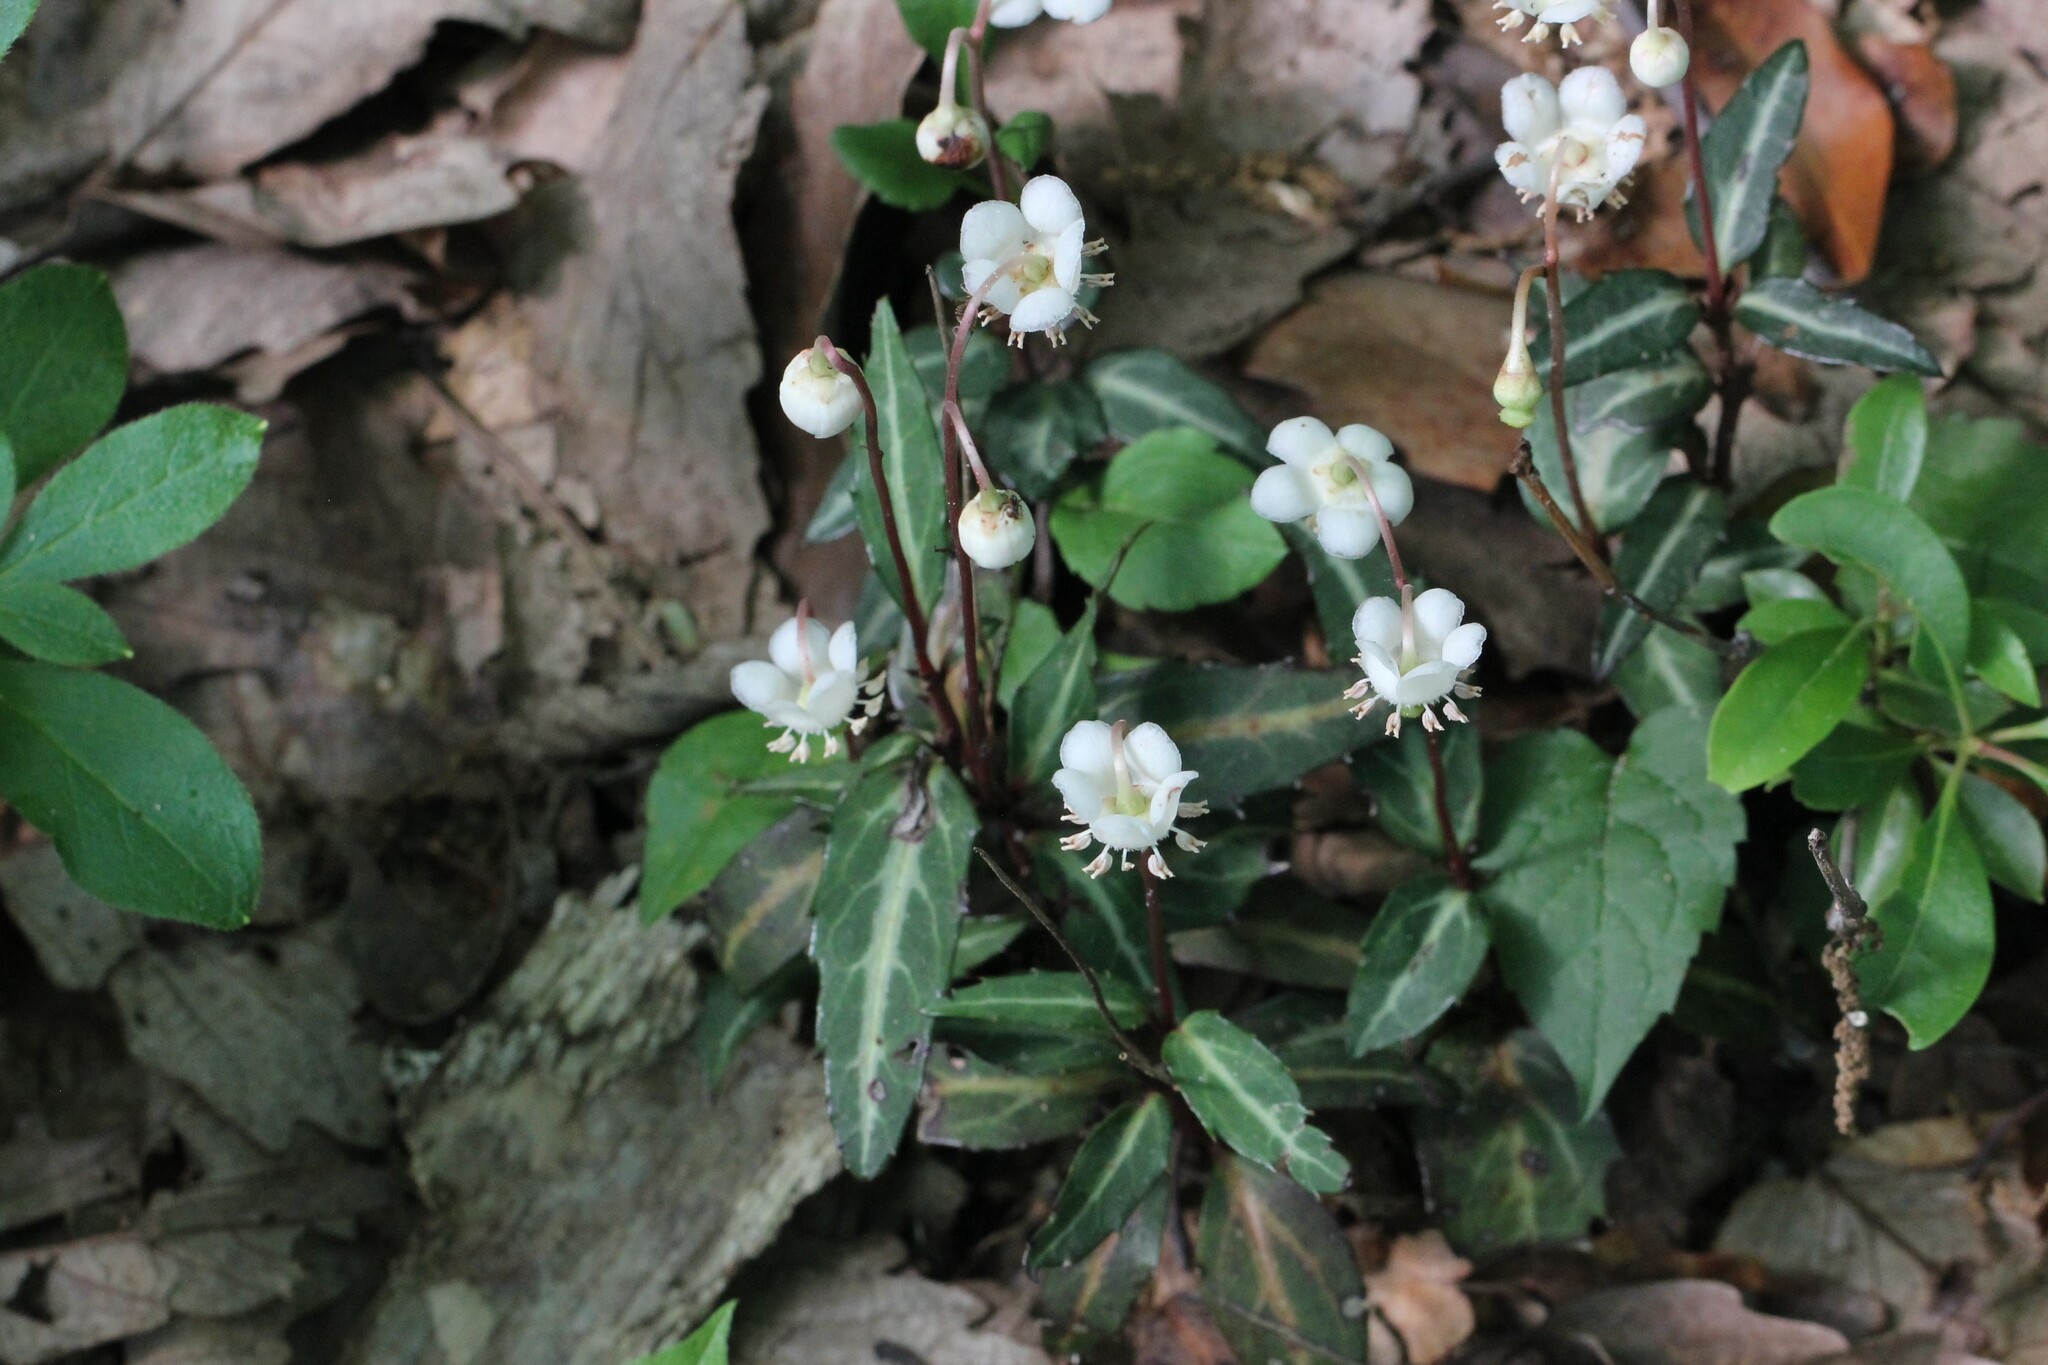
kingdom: Plantae
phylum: Tracheophyta
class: Magnoliopsida
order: Ericales
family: Ericaceae
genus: Chimaphila
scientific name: Chimaphila maculata
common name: Spotted pipsissewa
